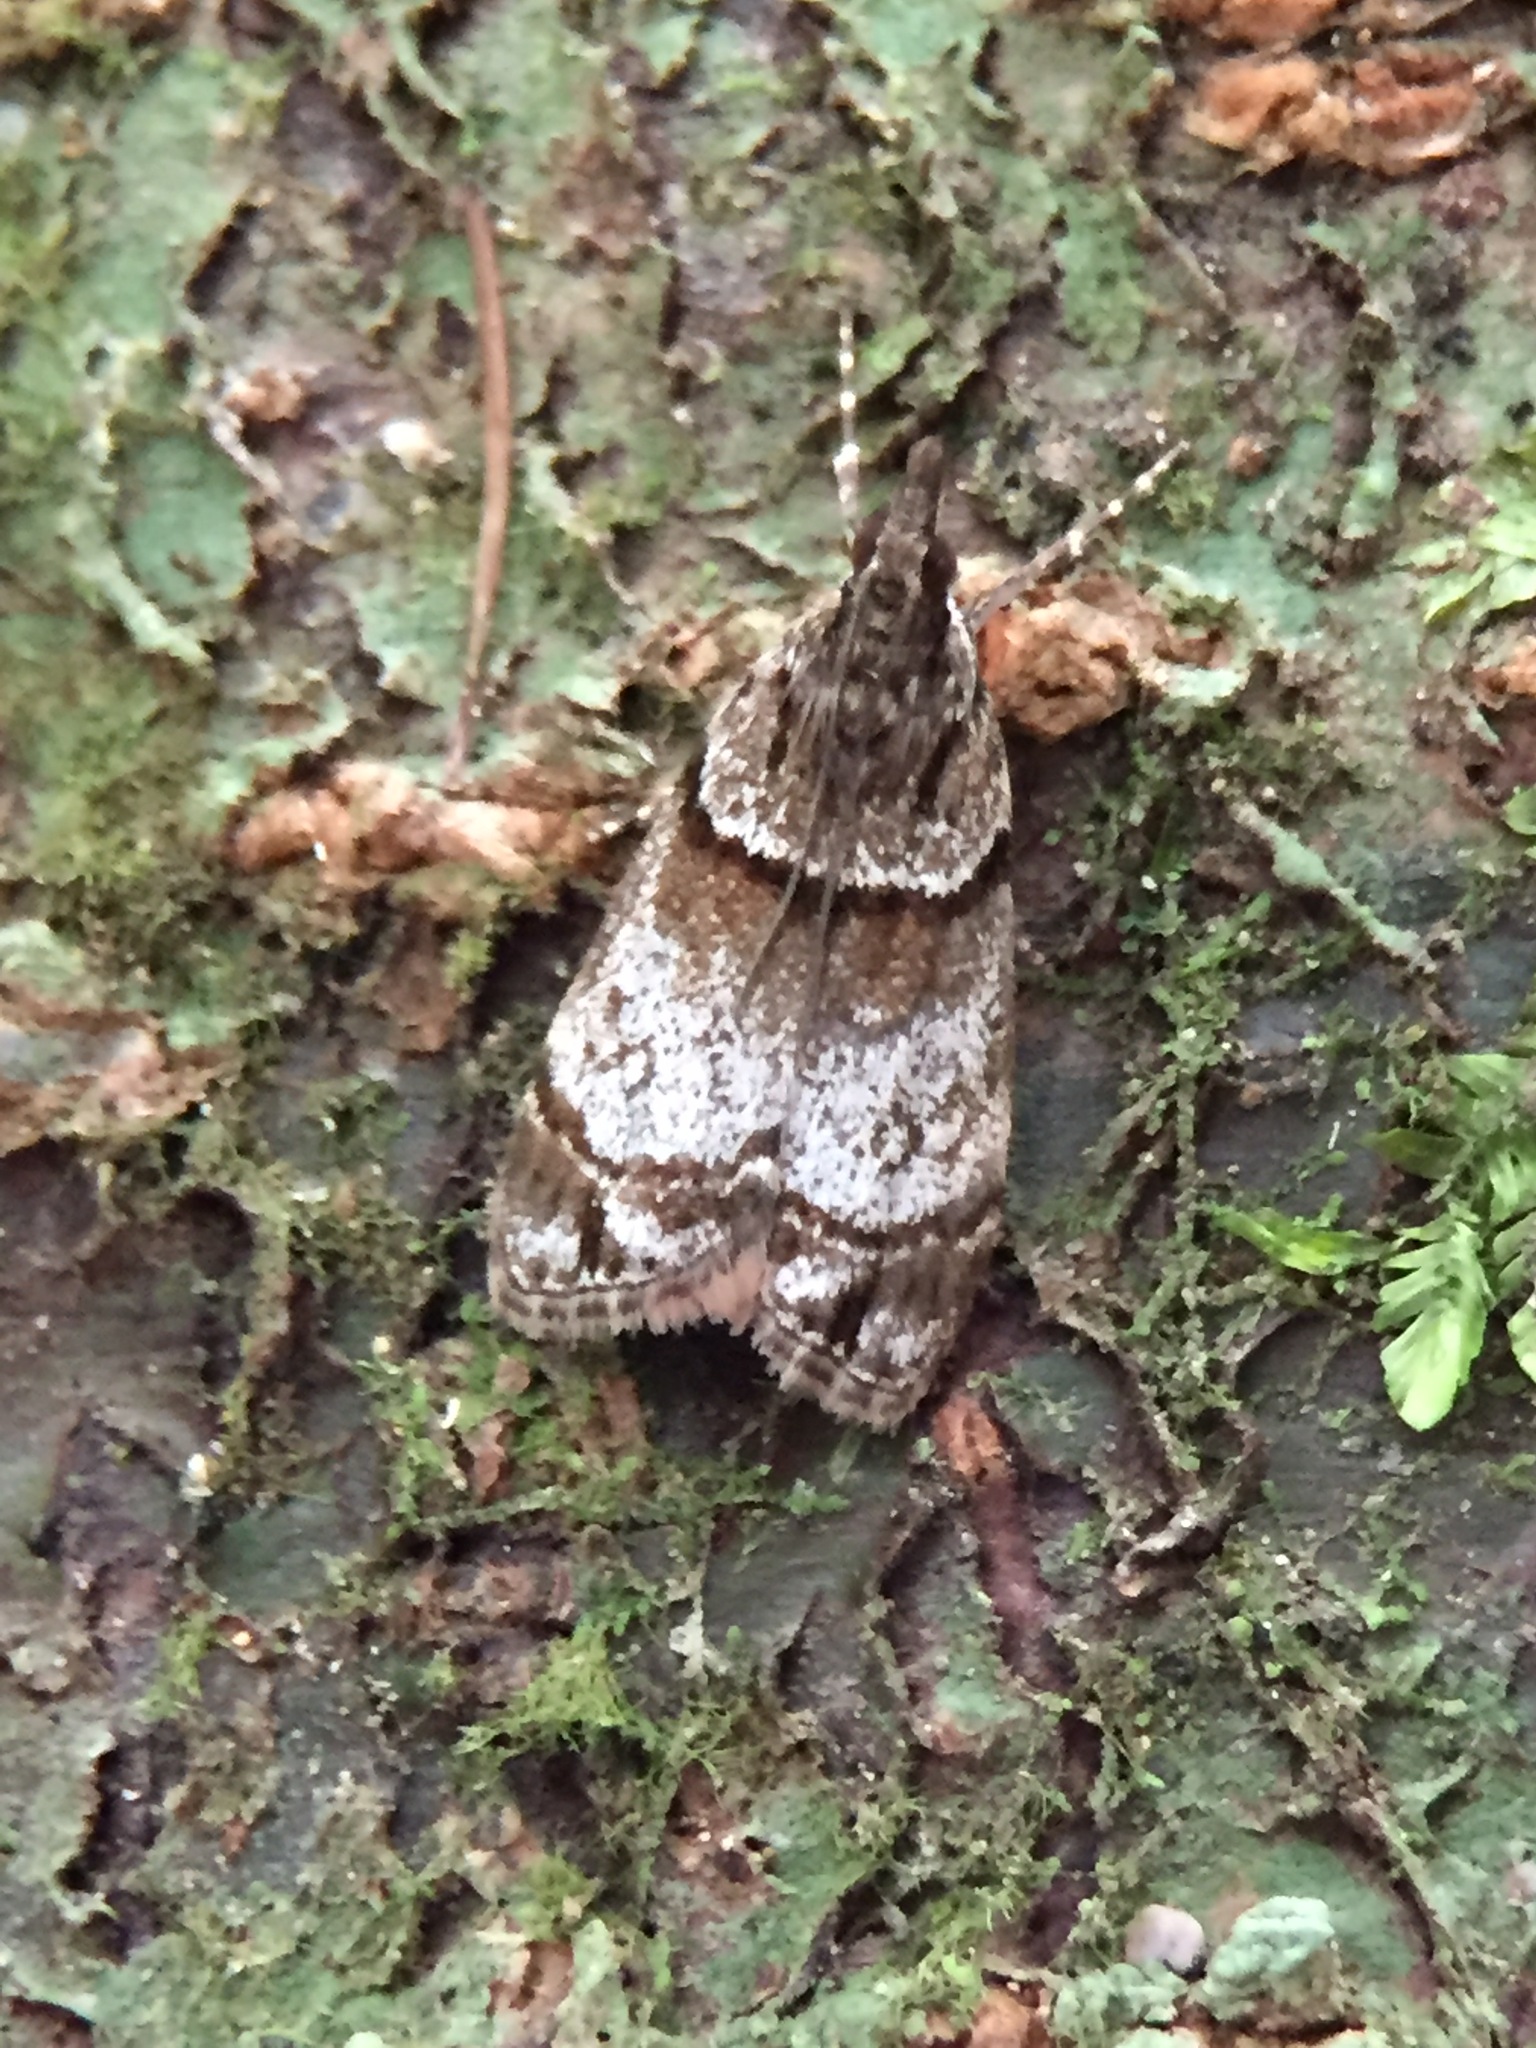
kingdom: Animalia
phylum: Arthropoda
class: Insecta
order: Lepidoptera
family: Crambidae
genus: Eudonia
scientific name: Eudonia choristis
